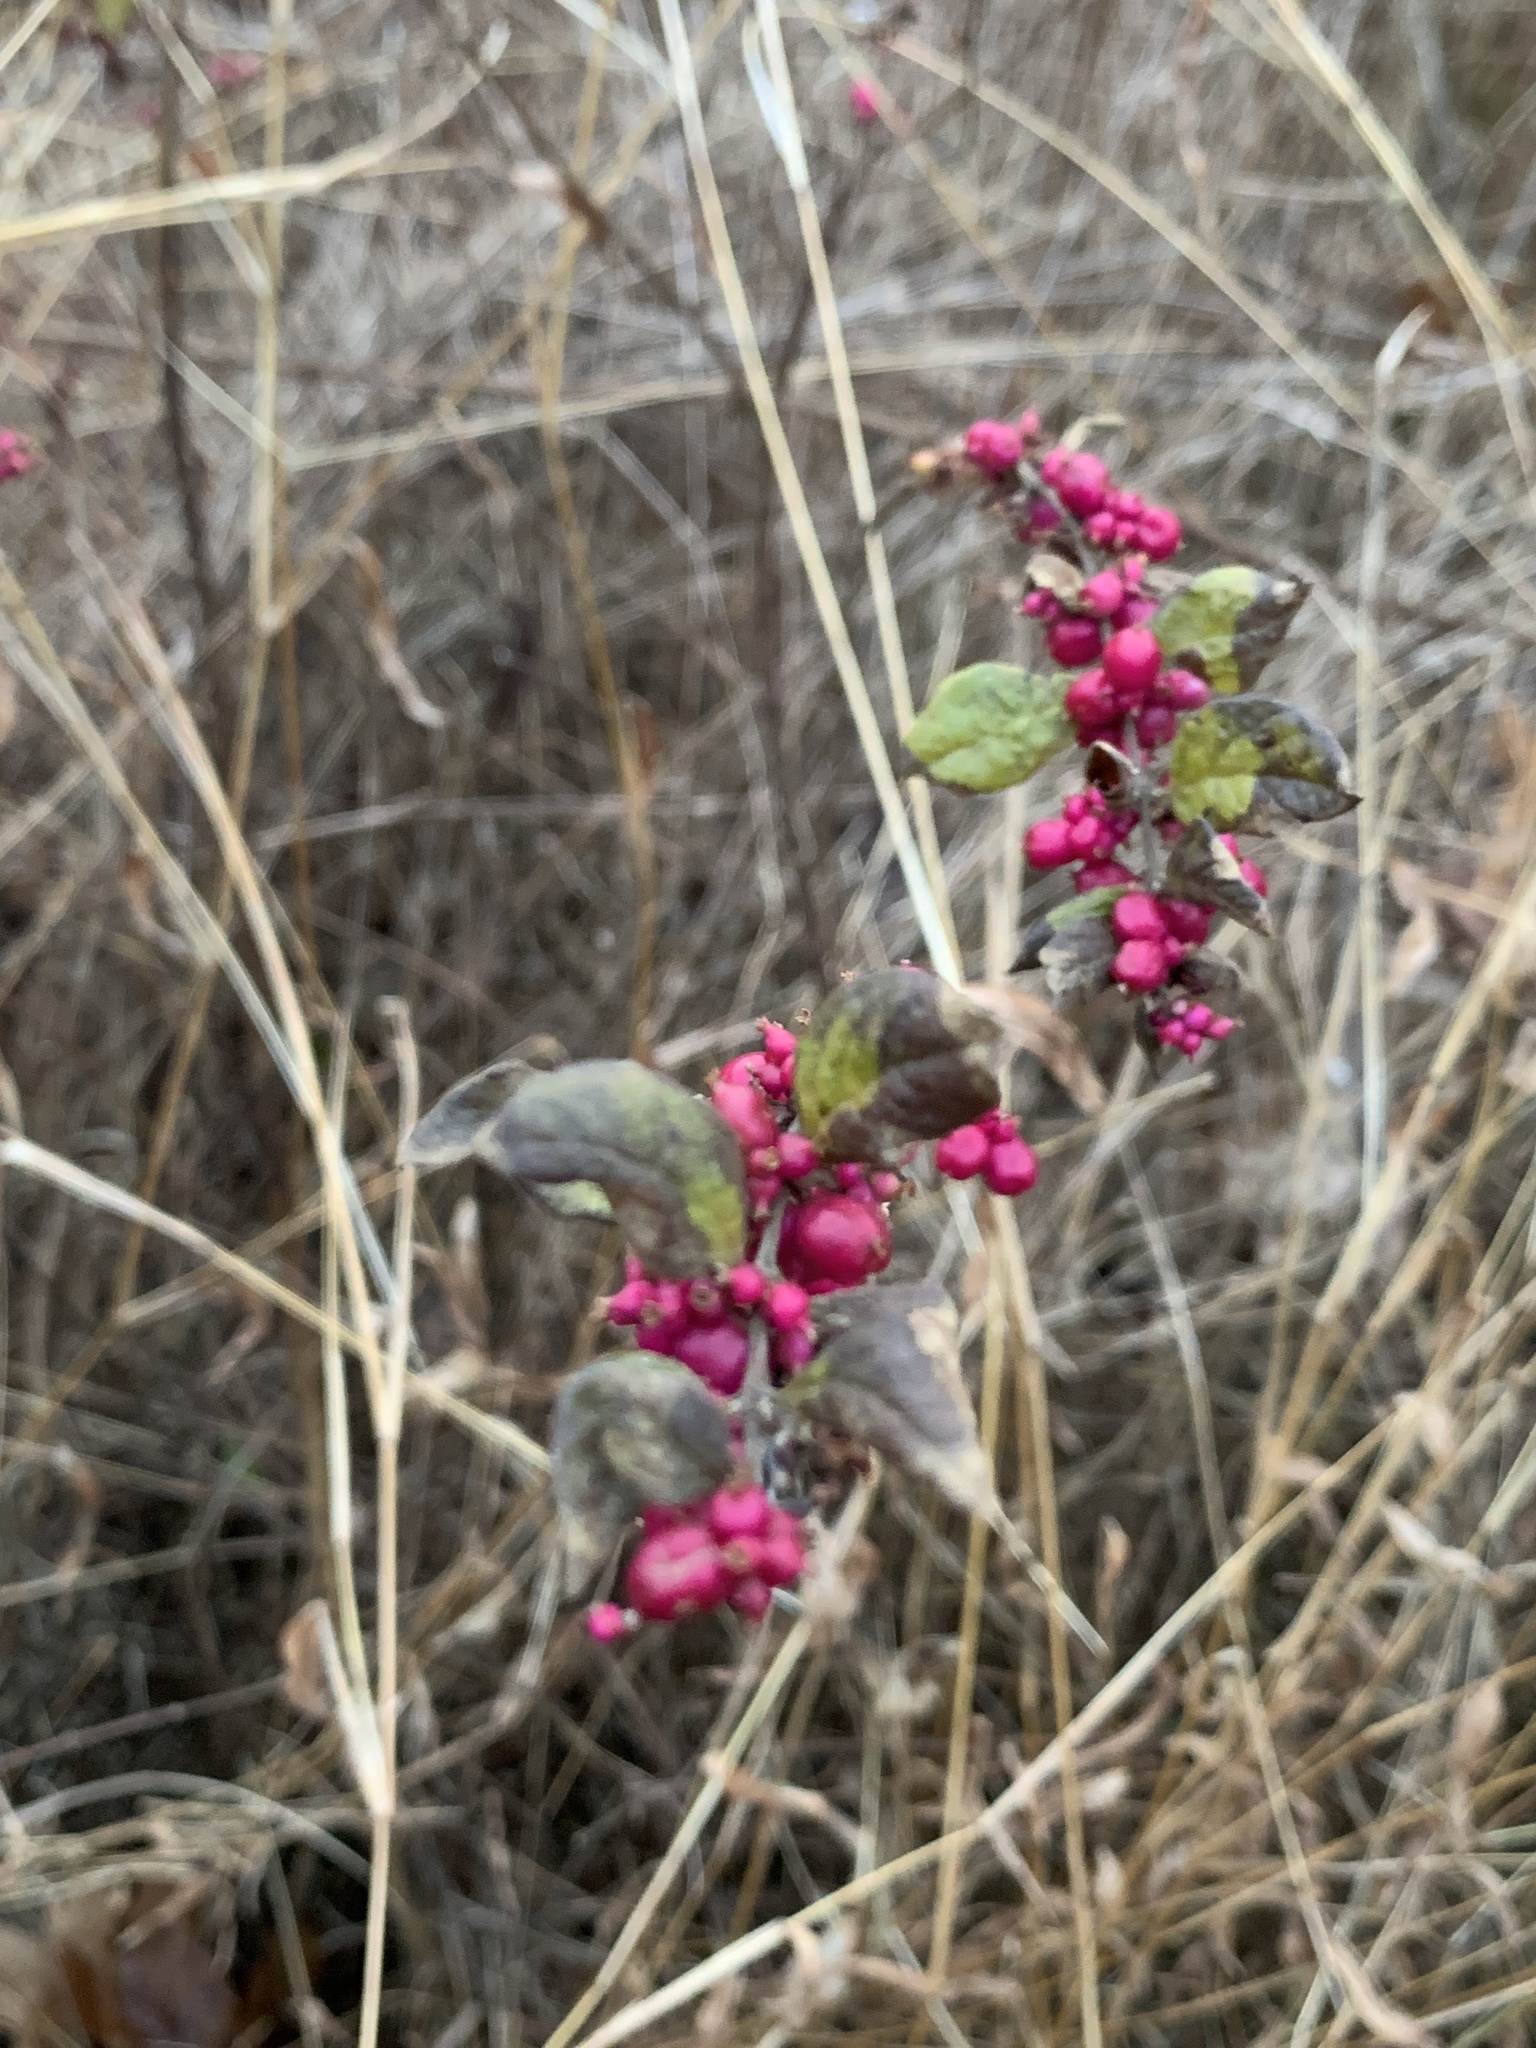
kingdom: Plantae
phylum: Tracheophyta
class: Magnoliopsida
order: Dipsacales
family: Caprifoliaceae
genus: Symphoricarpos
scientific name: Symphoricarpos orbiculatus
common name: Coralberry
